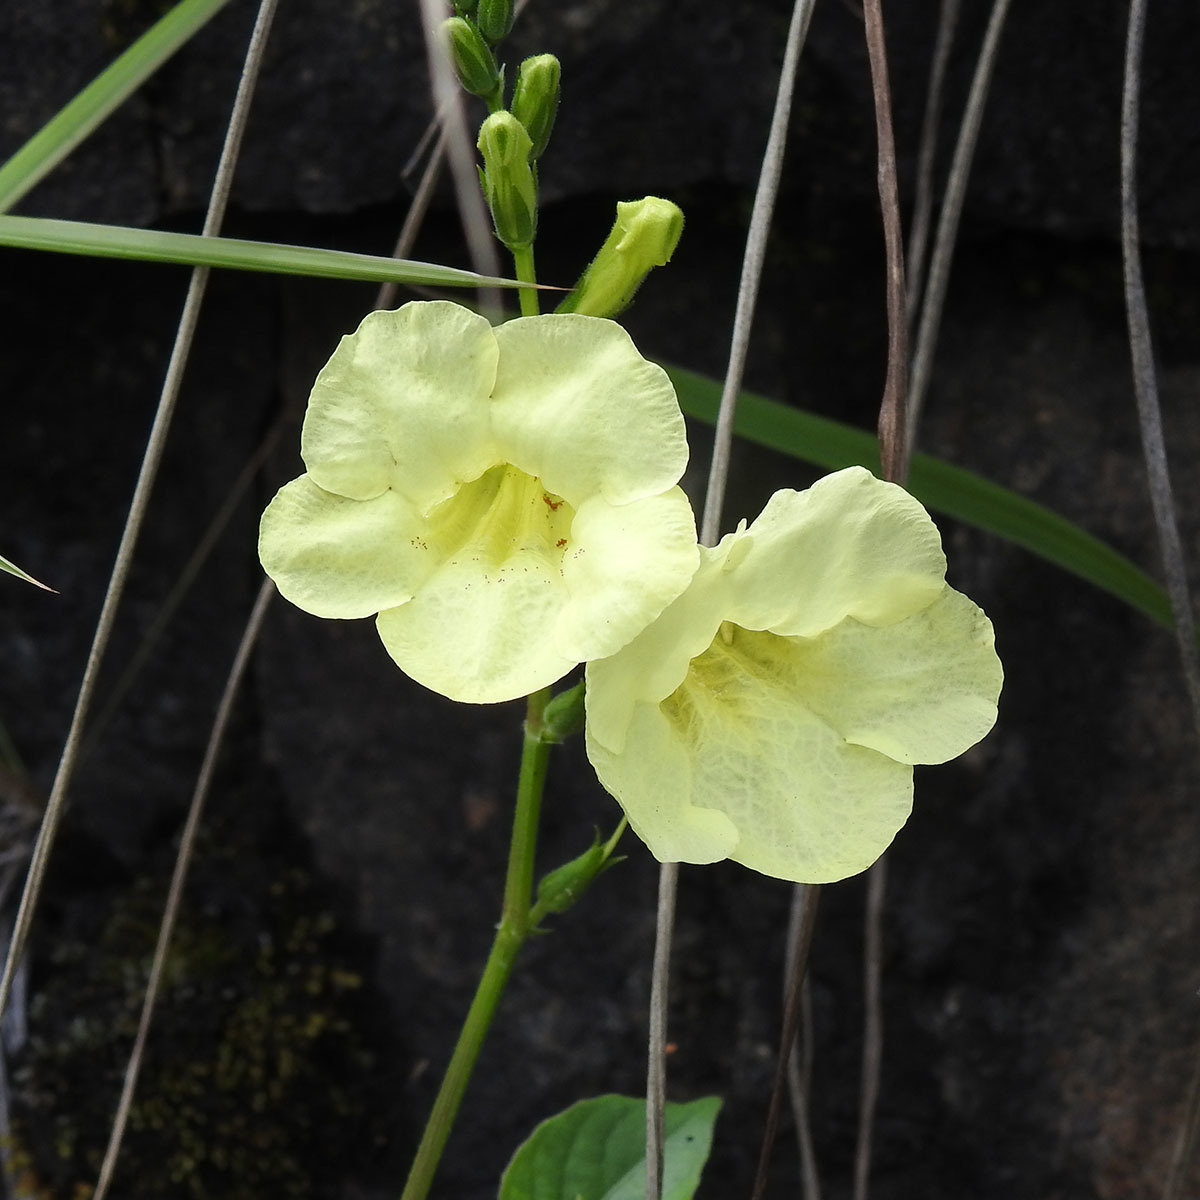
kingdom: Plantae
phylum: Tracheophyta
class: Magnoliopsida
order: Lamiales
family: Acanthaceae
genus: Asystasia
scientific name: Asystasia gangetica
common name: Chinese violet
